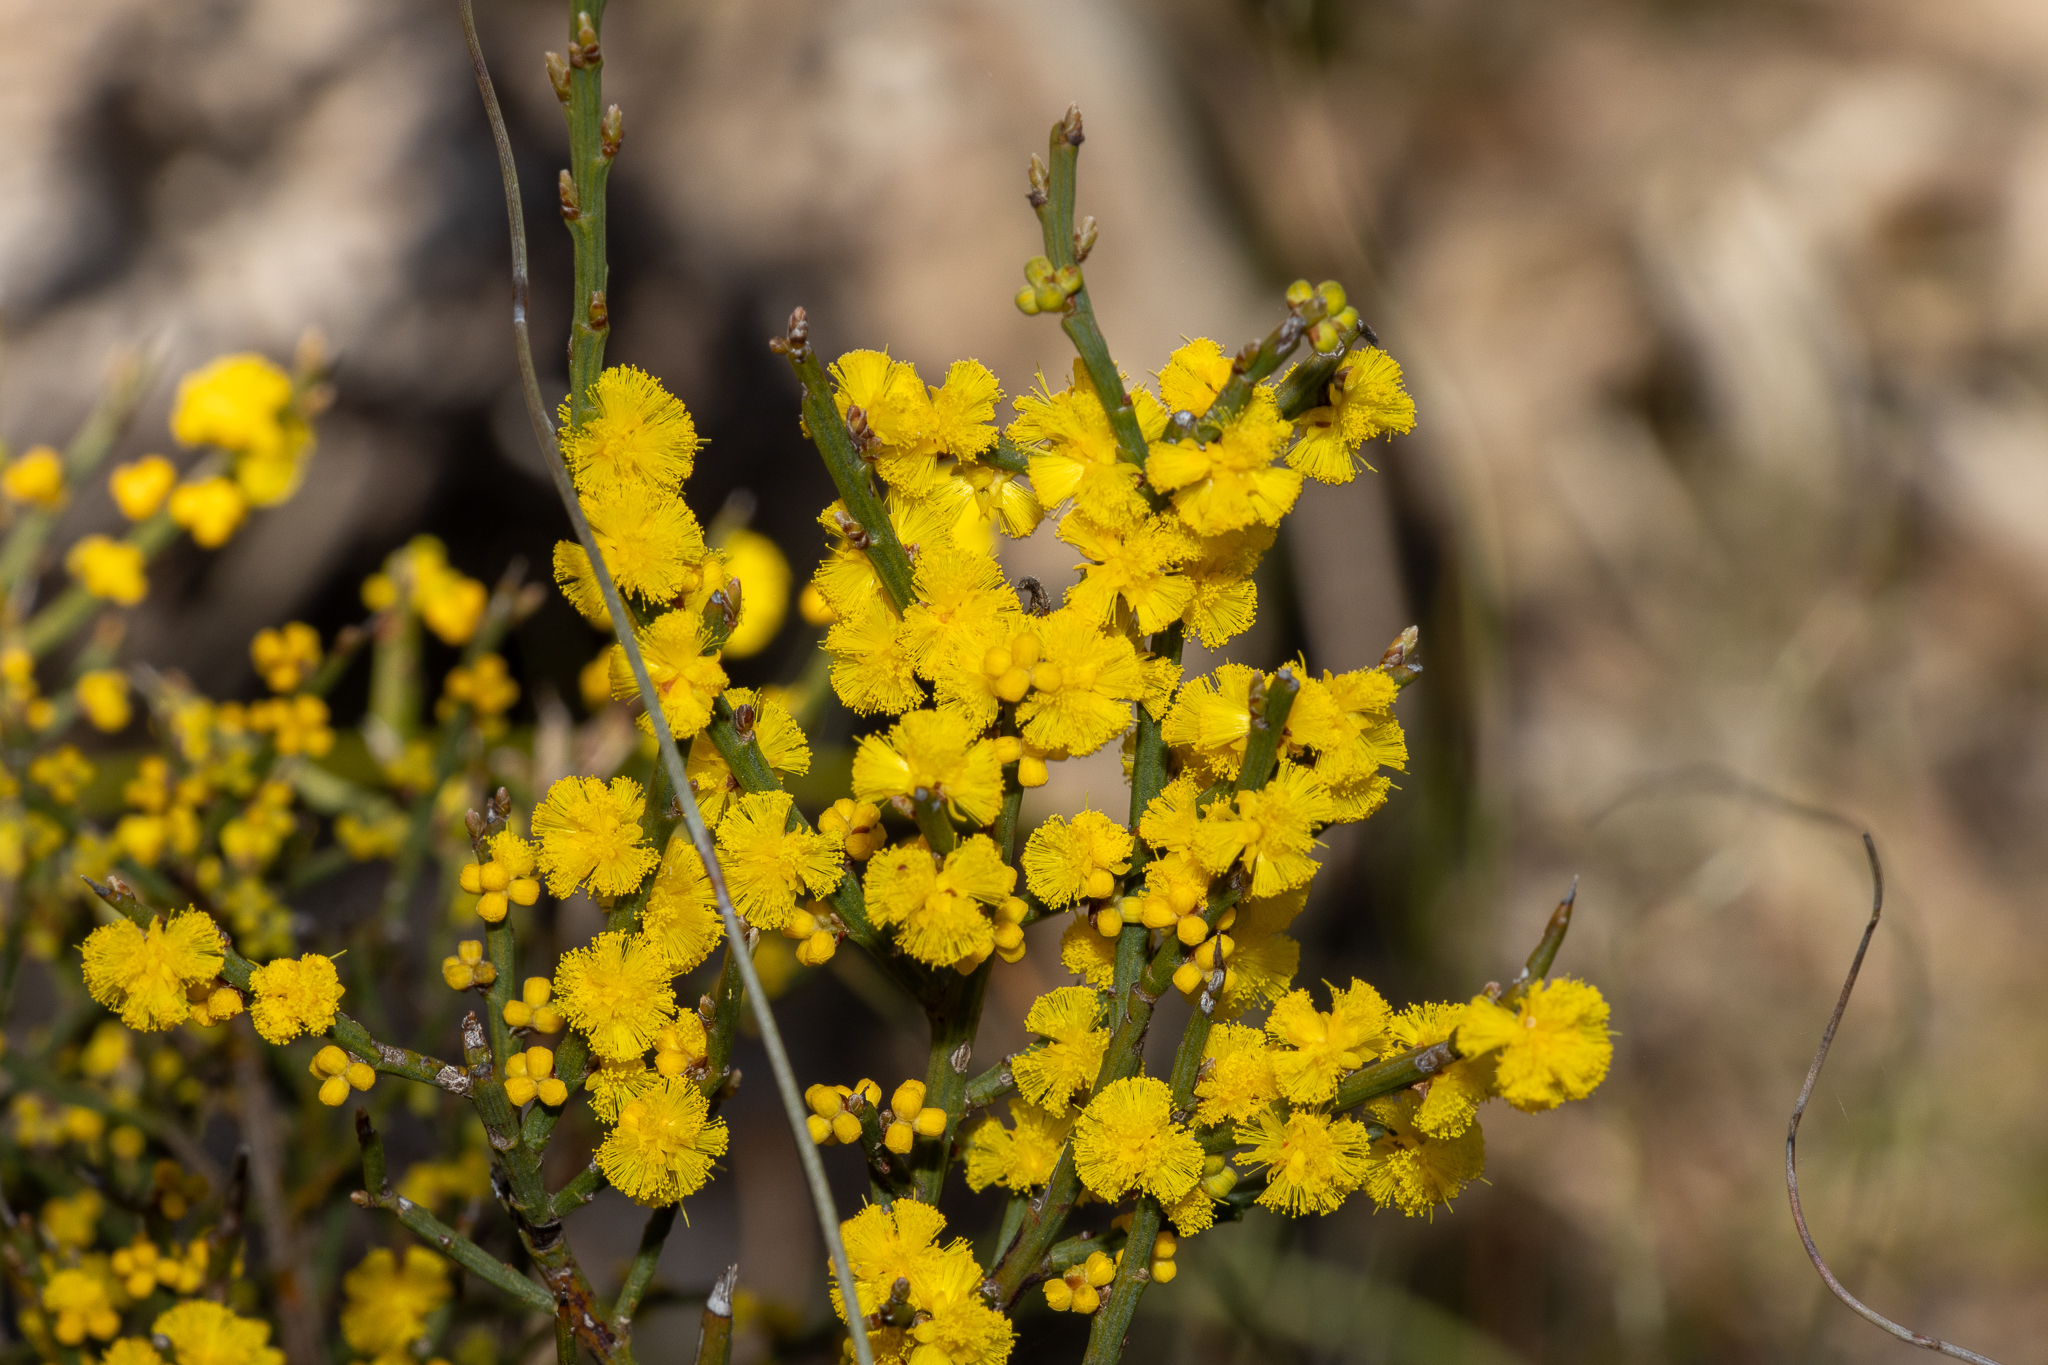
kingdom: Plantae
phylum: Tracheophyta
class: Magnoliopsida
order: Fabales
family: Fabaceae
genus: Acacia
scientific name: Acacia spinescens
